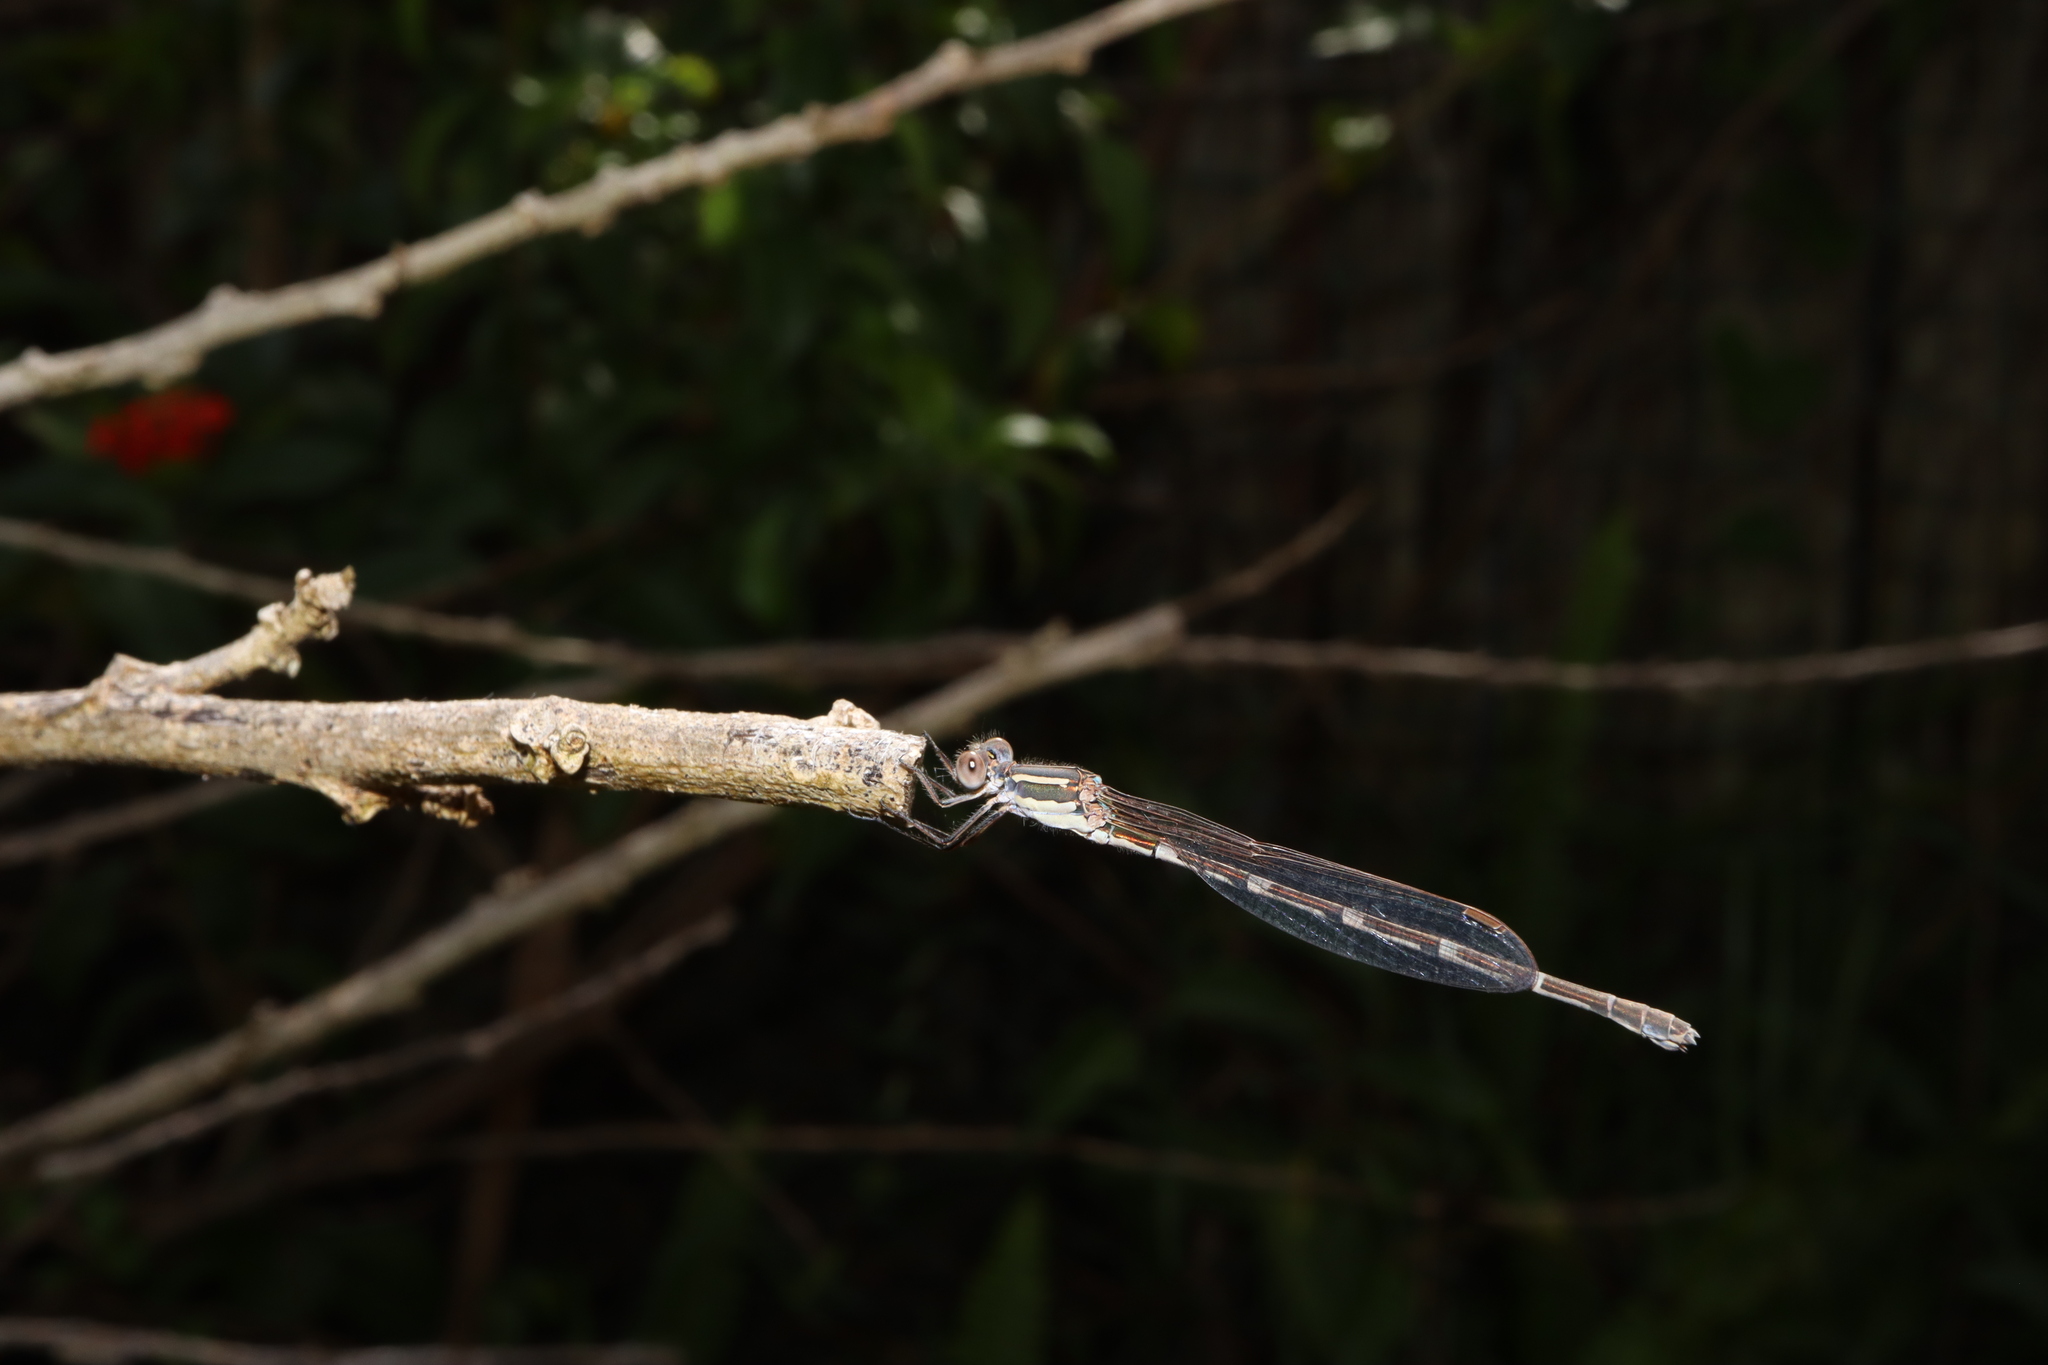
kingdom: Animalia
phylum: Arthropoda
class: Insecta
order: Odonata
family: Lestidae
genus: Austrolestes
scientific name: Austrolestes leda
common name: Wandering ringtail
